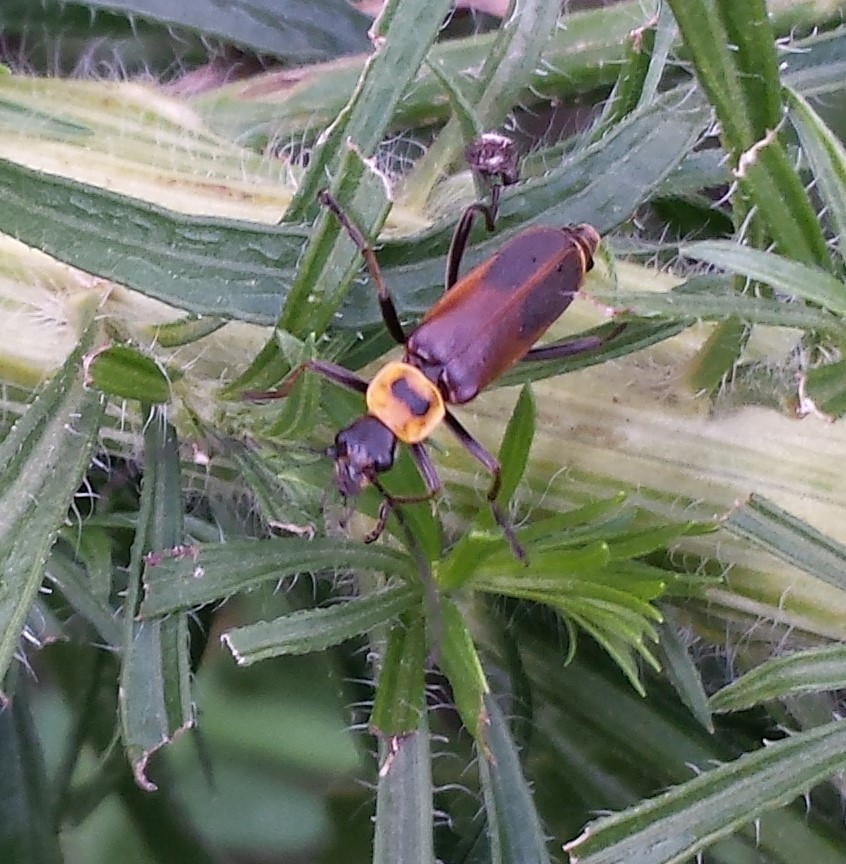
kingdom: Animalia
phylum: Arthropoda
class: Insecta
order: Coleoptera
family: Cantharidae
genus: Chauliognathus
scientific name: Chauliognathus pensylvanicus
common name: Goldenrod soldier beetle
